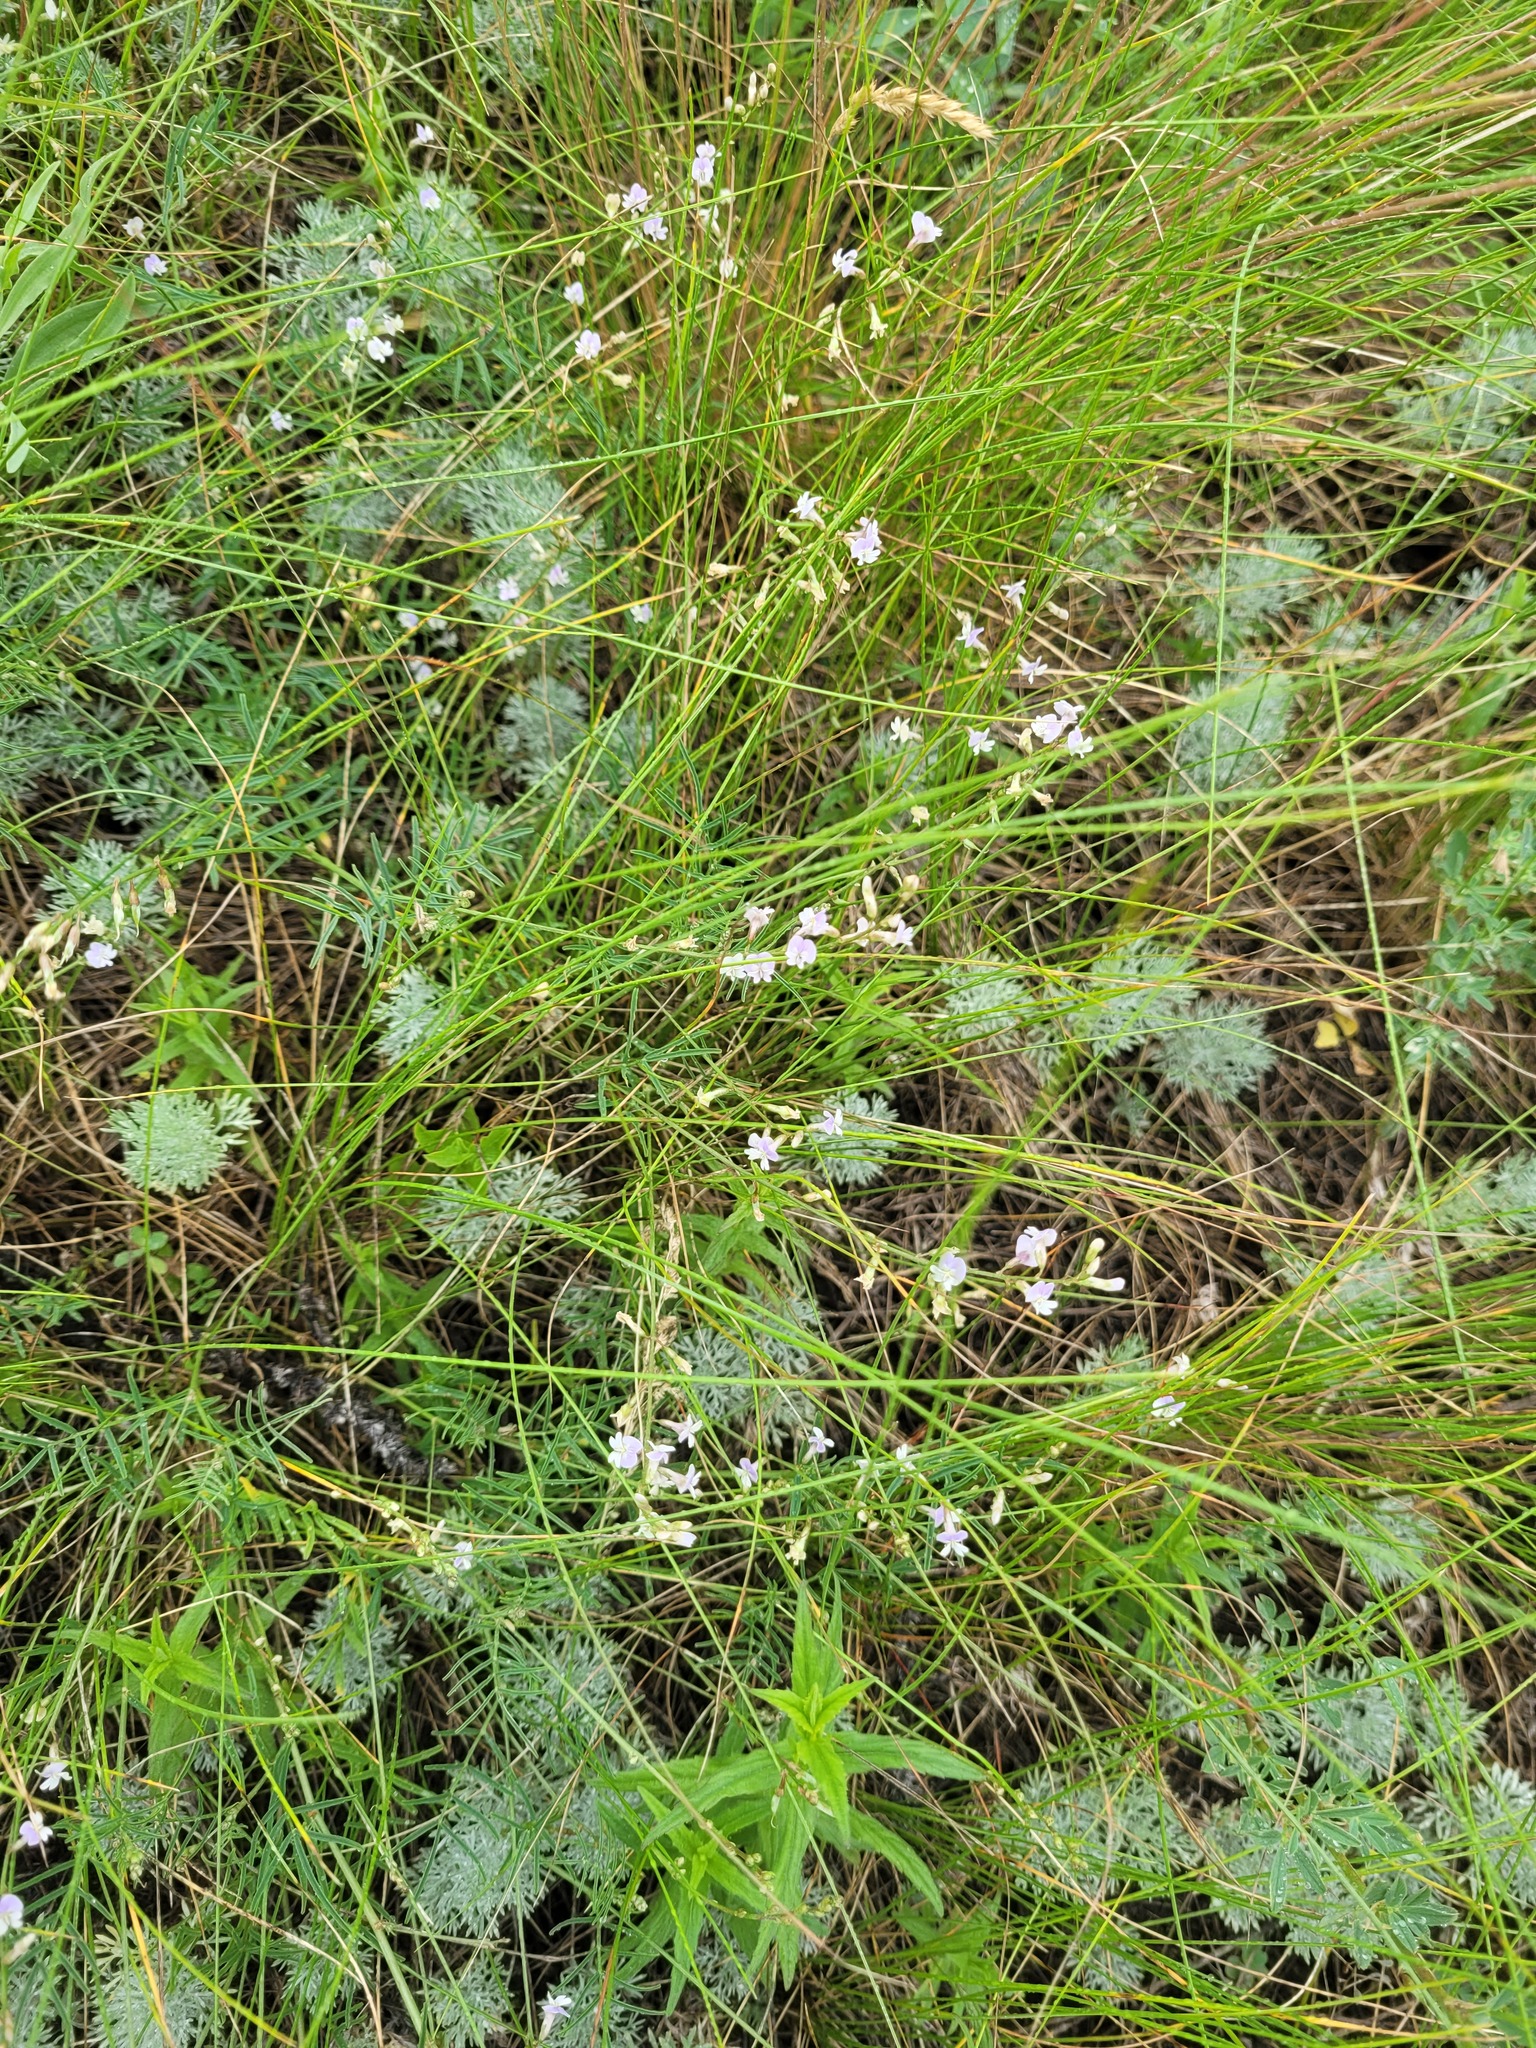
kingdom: Plantae
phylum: Tracheophyta
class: Magnoliopsida
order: Fabales
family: Fabaceae
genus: Astragalus
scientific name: Astragalus austriacus
